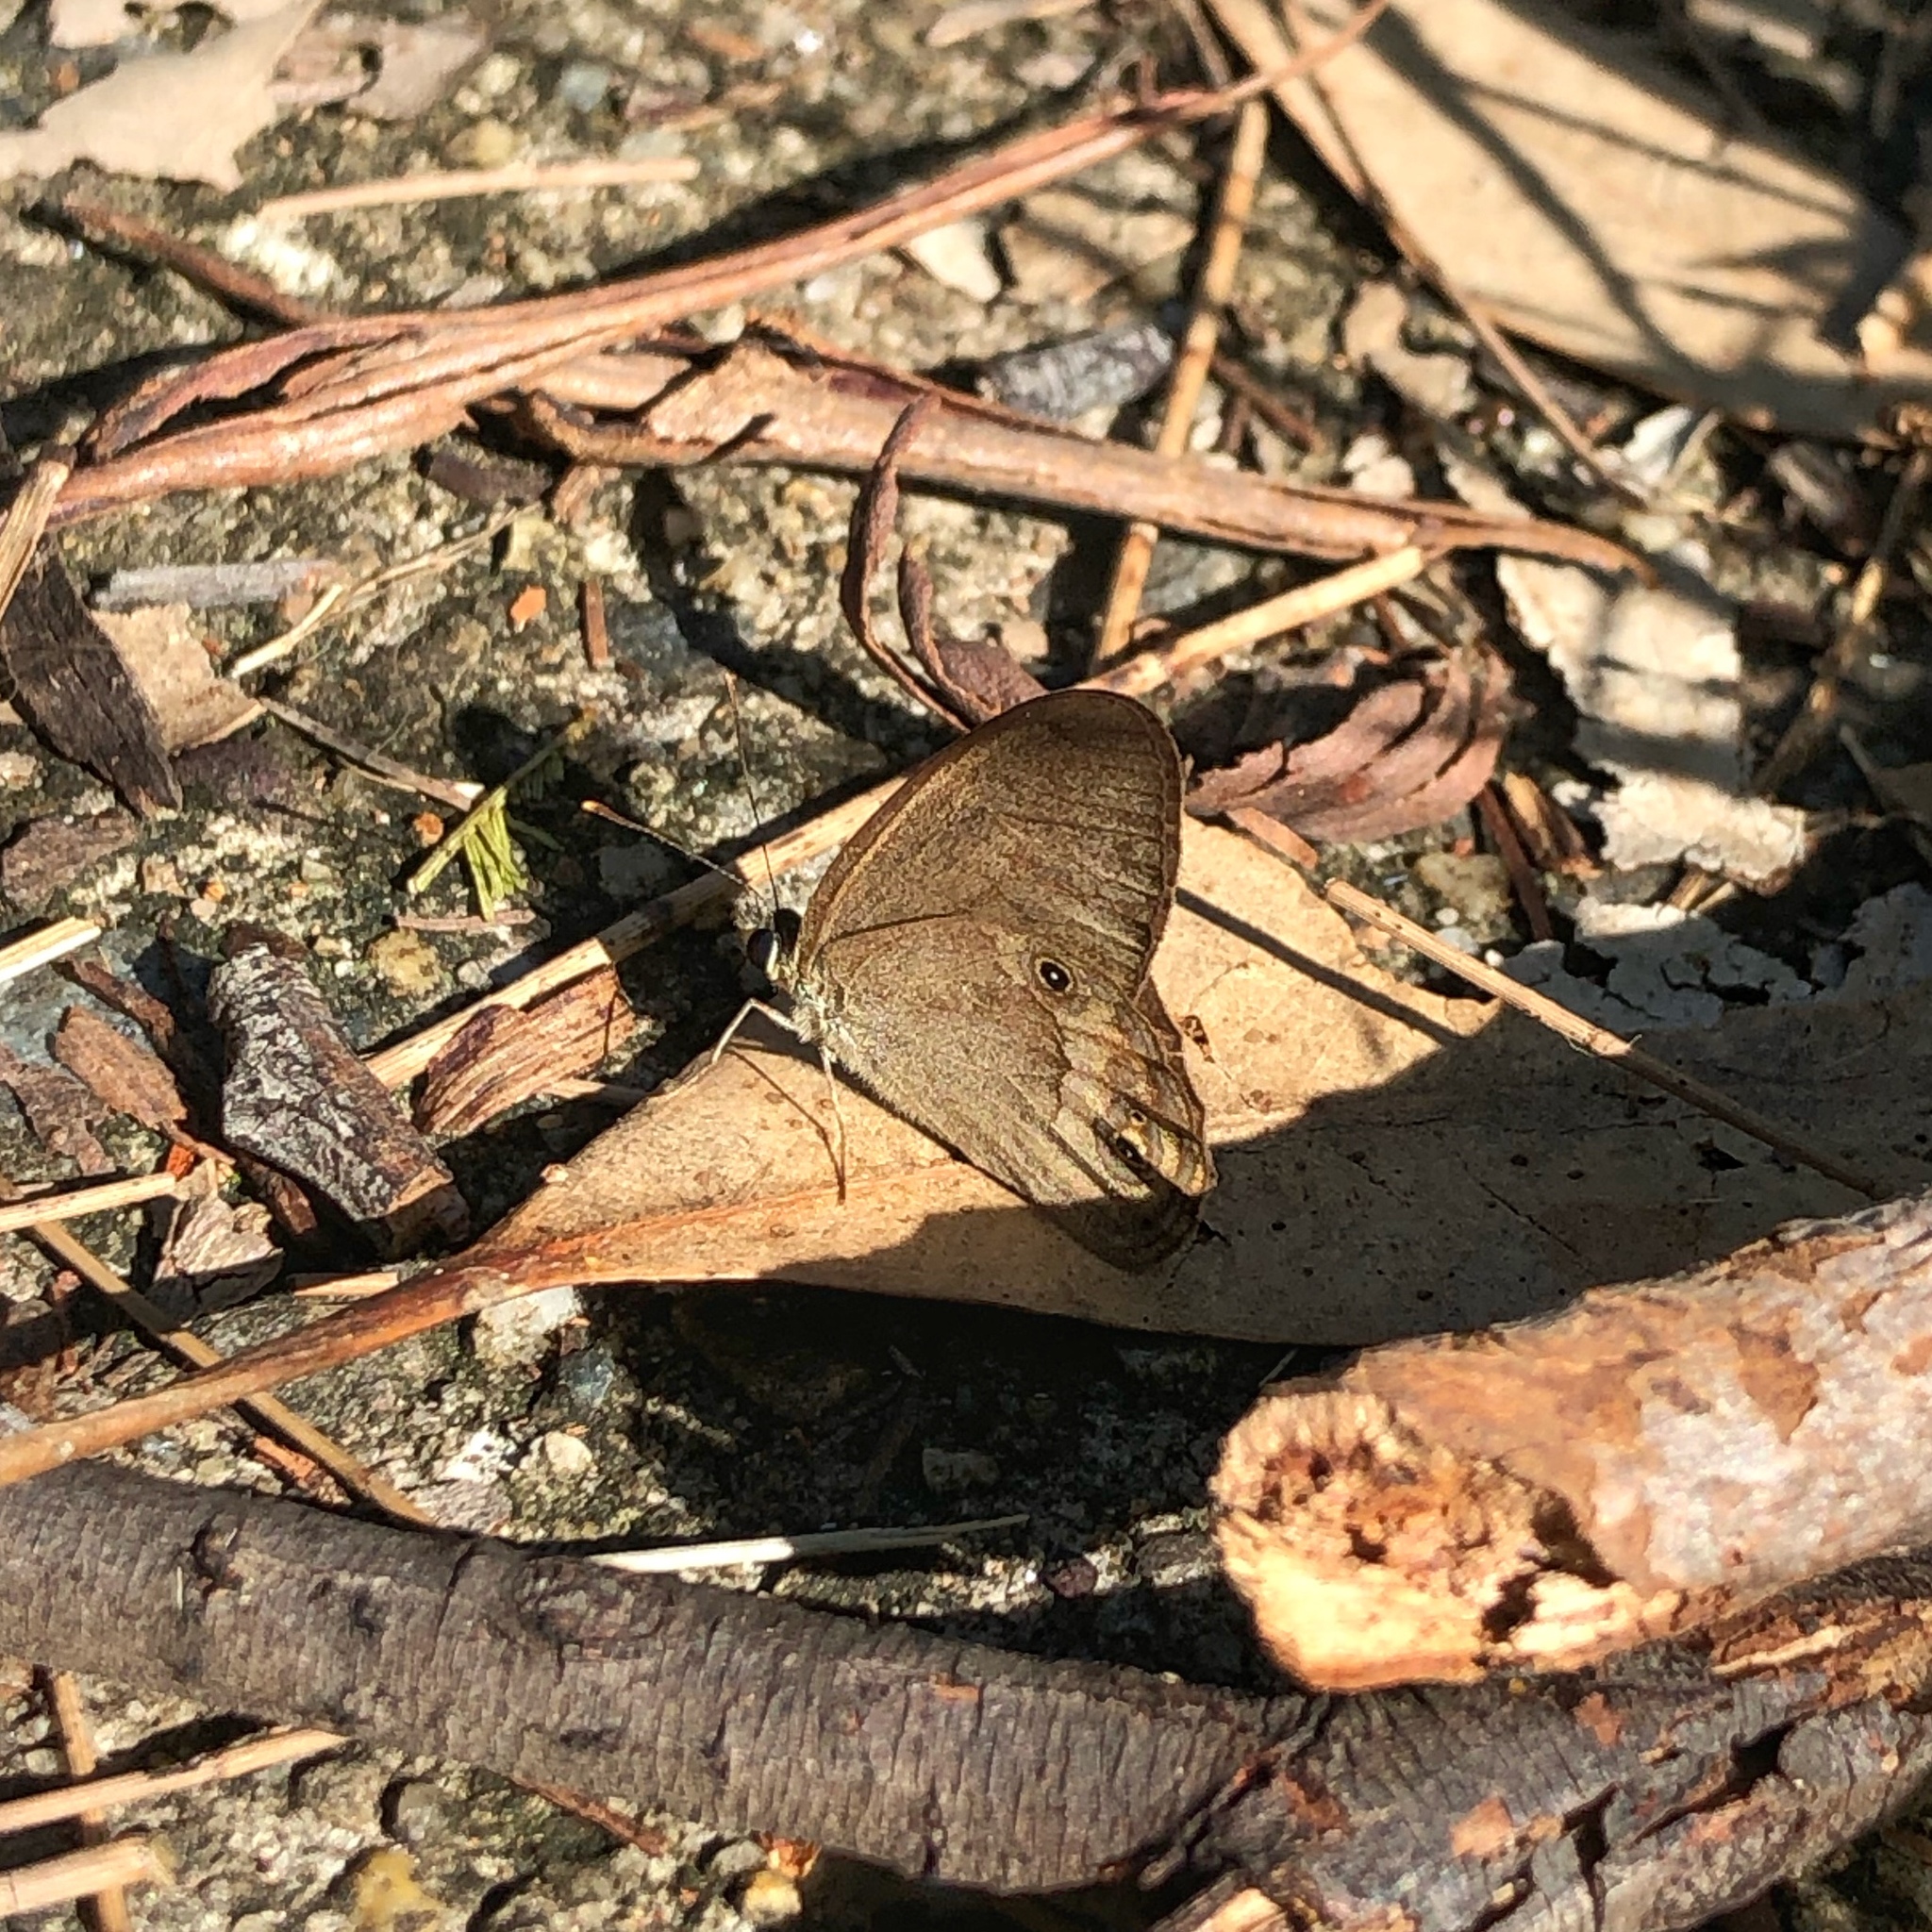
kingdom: Animalia
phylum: Arthropoda
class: Insecta
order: Lepidoptera
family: Nymphalidae
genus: Hypocysta
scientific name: Hypocysta metirius
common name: Brown ringlet
